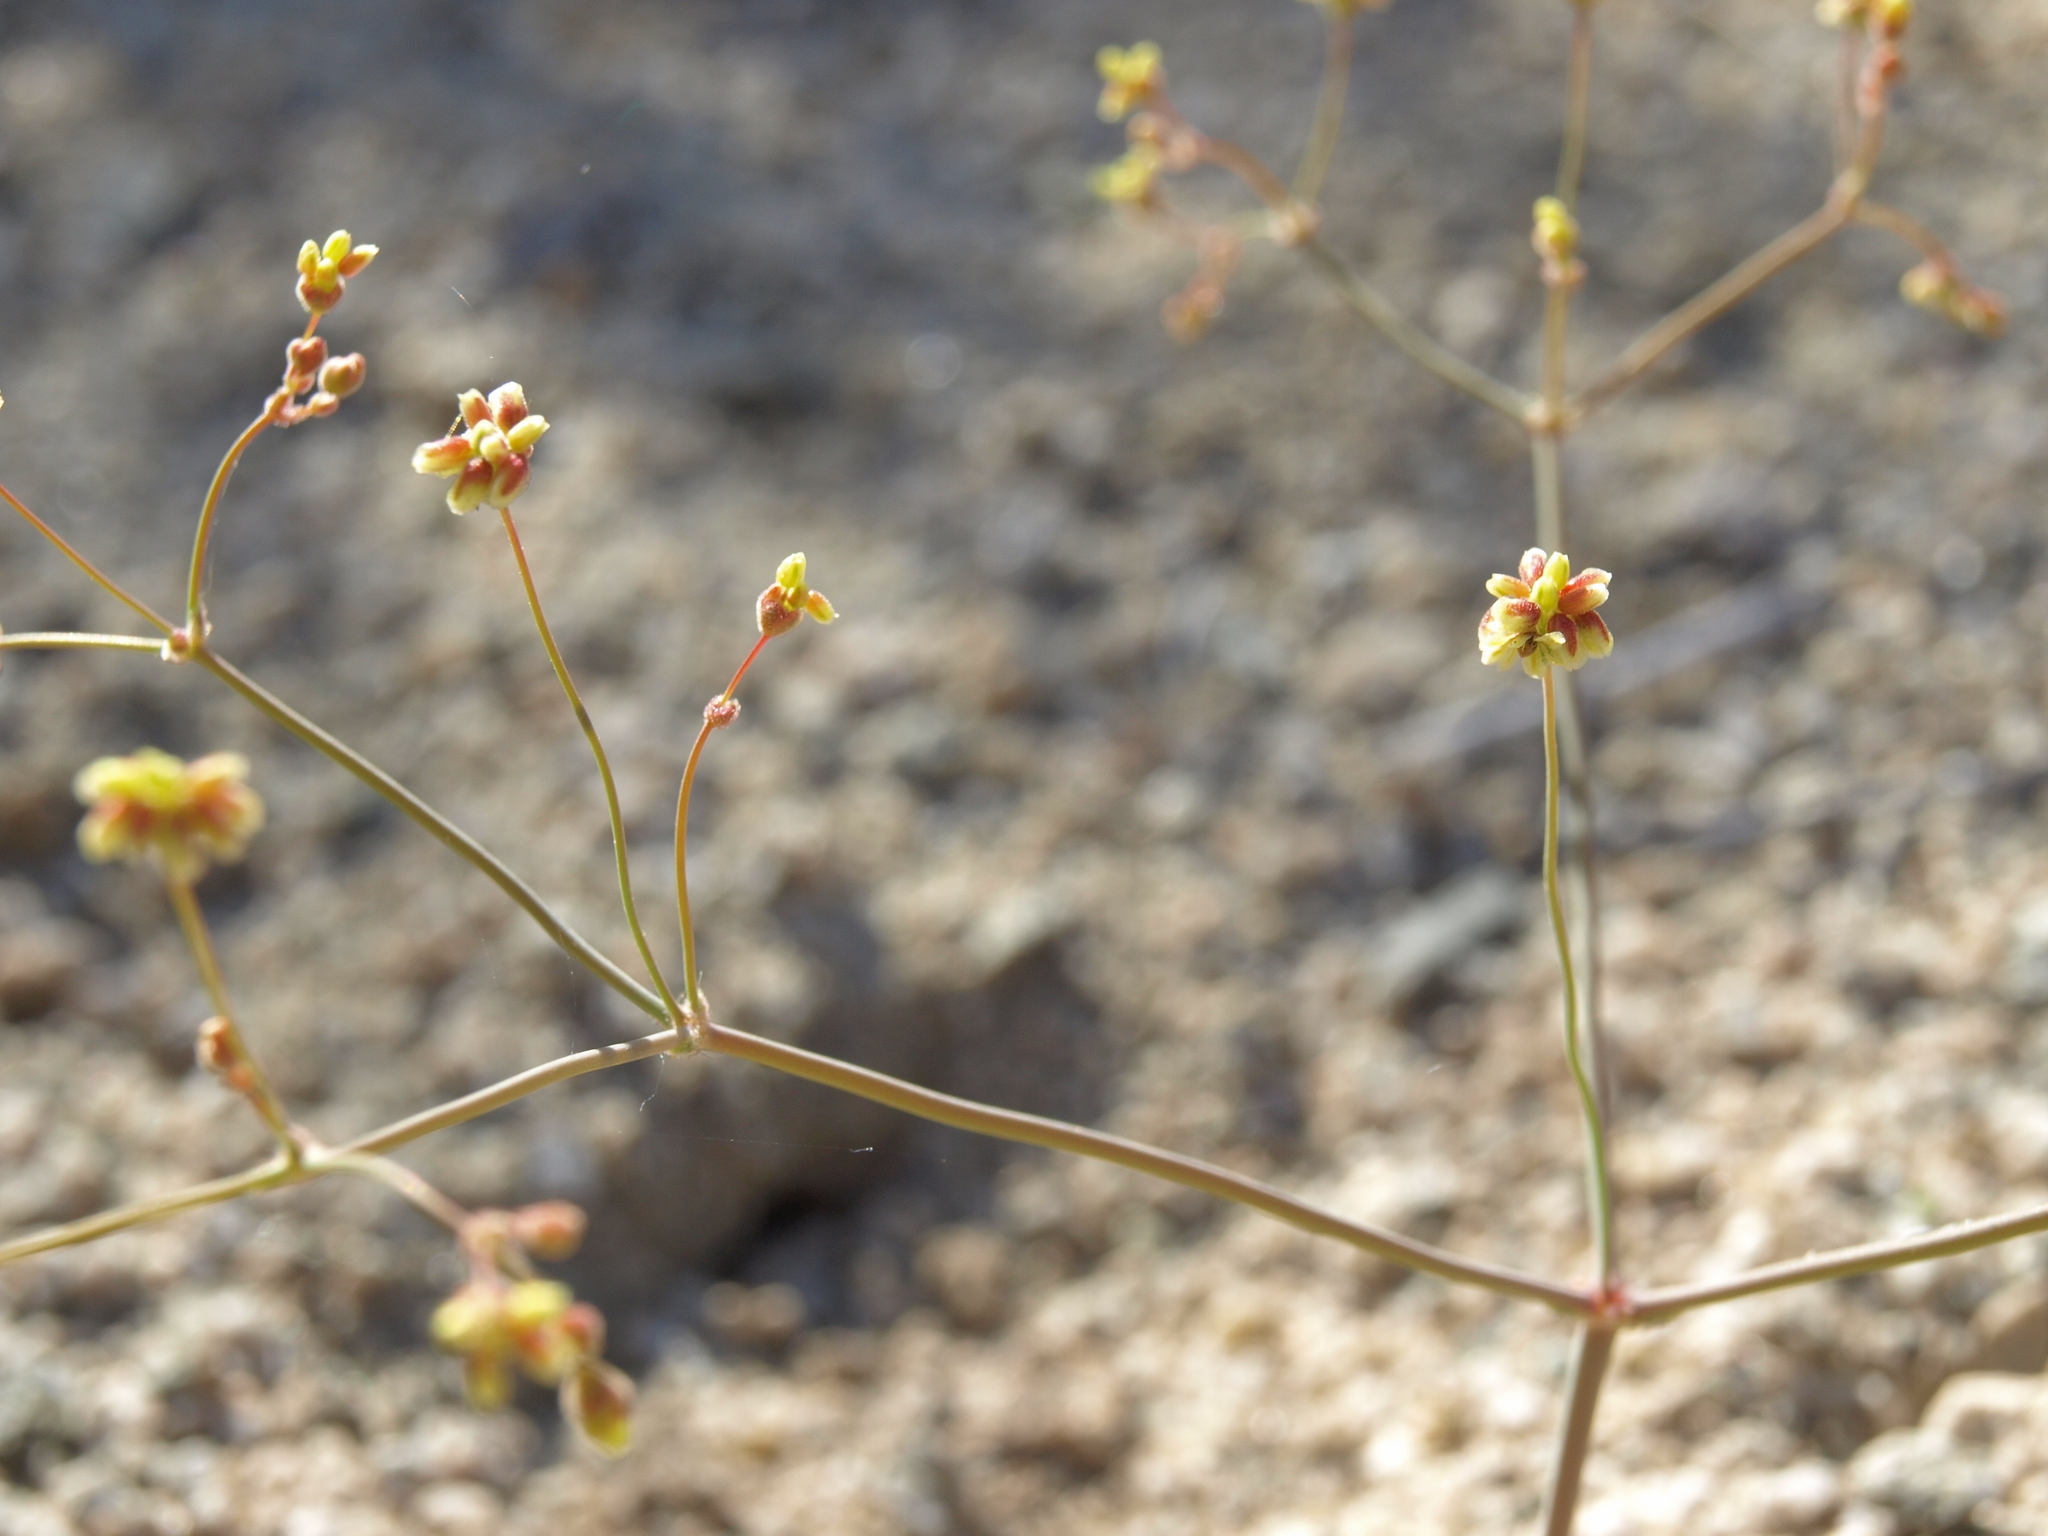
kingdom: Plantae
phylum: Tracheophyta
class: Magnoliopsida
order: Caryophyllales
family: Polygonaceae
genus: Eriogonum
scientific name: Eriogonum pusillum
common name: Yellow turbans
